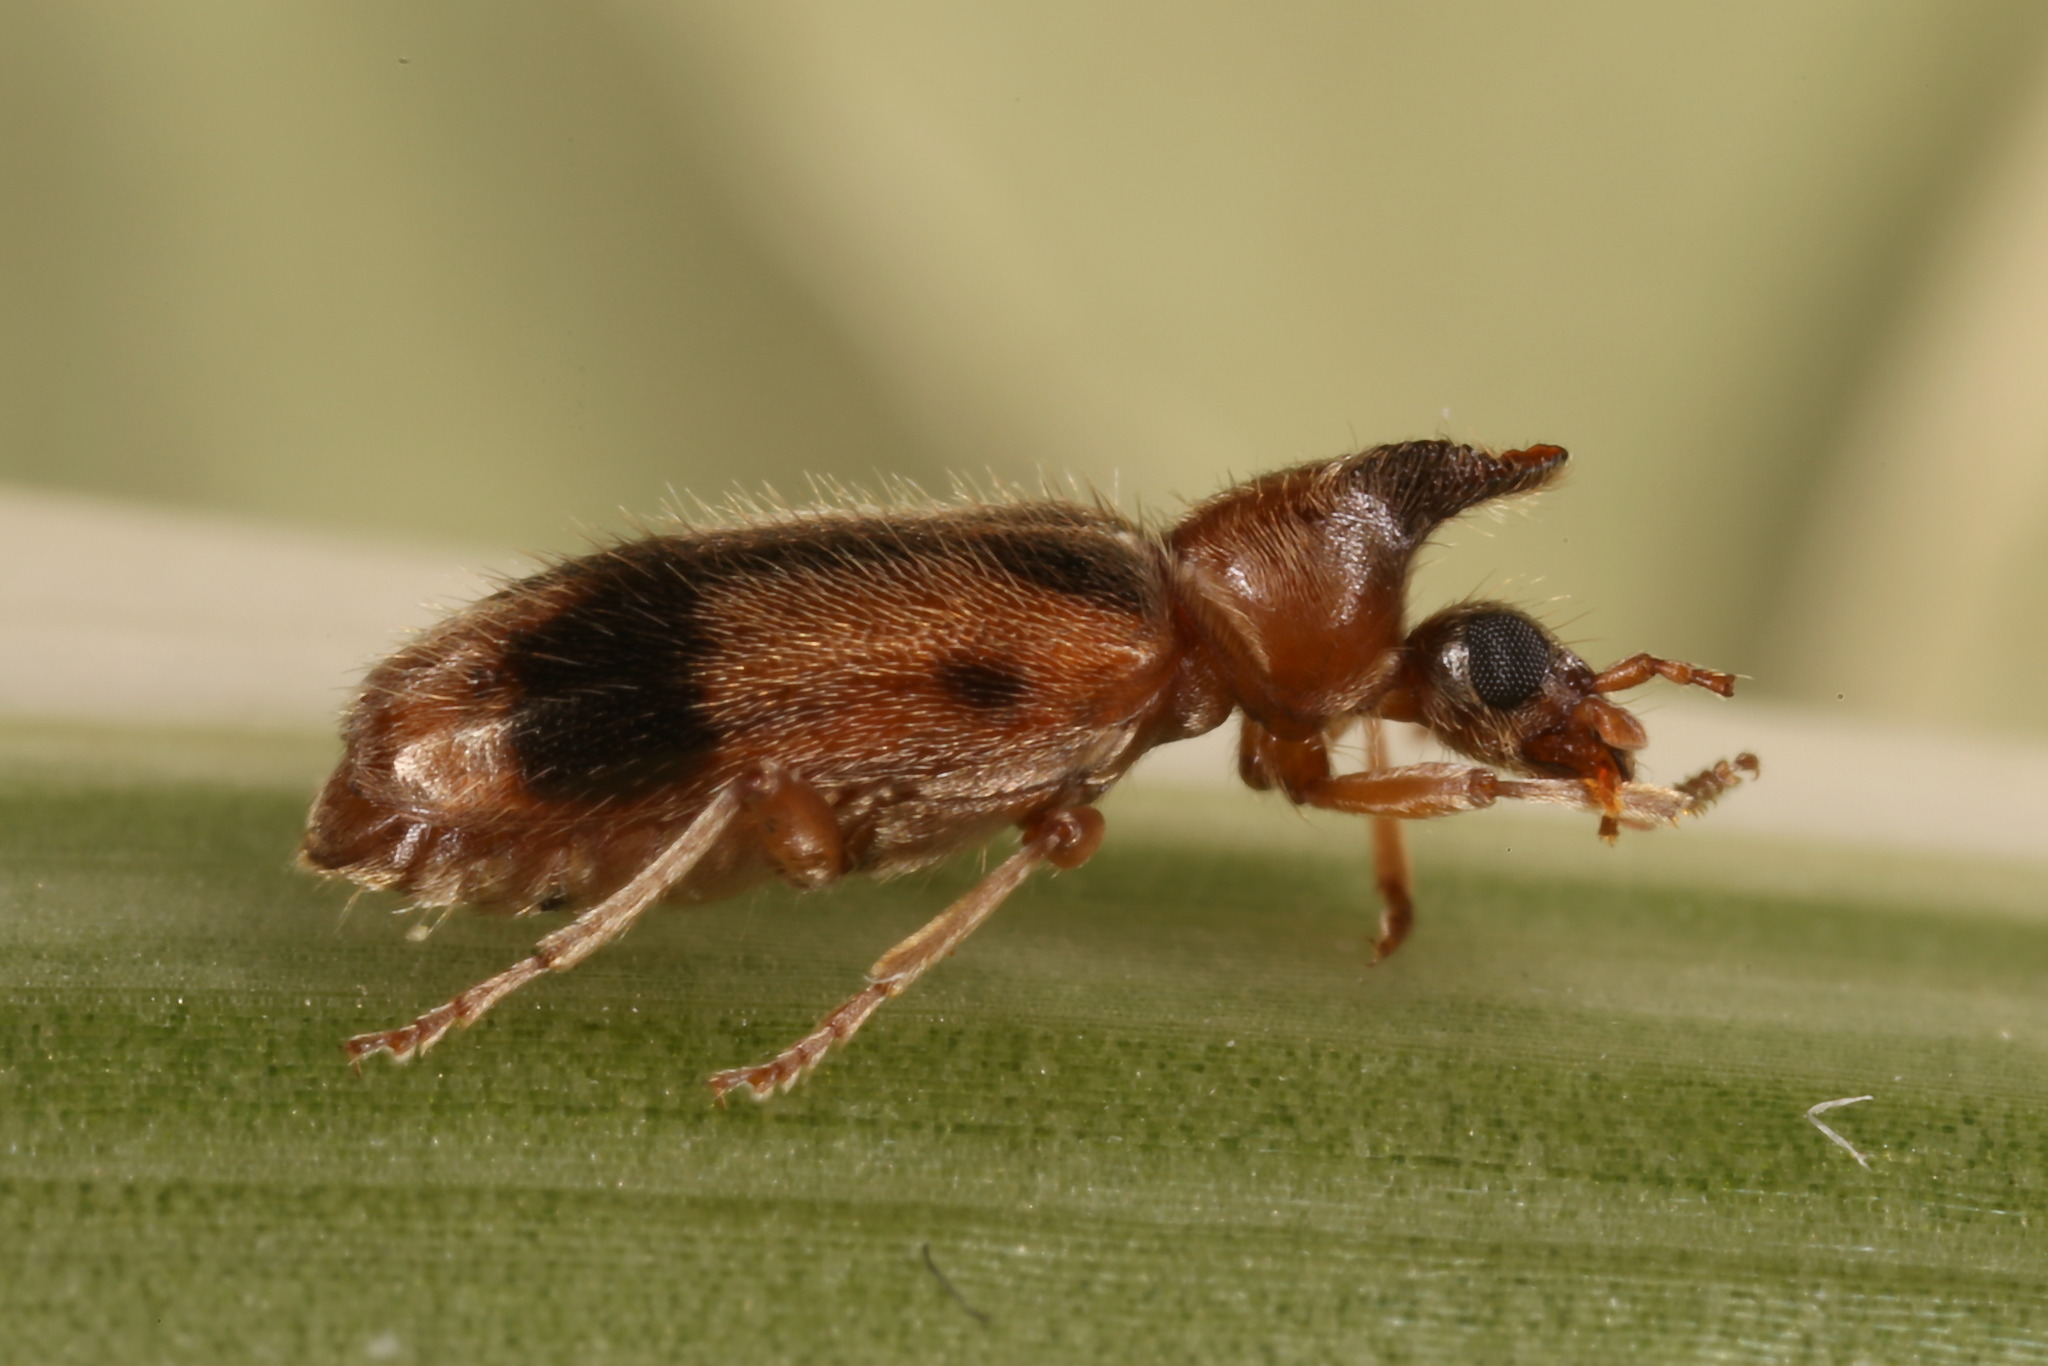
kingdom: Animalia
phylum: Arthropoda
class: Insecta
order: Coleoptera
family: Anthicidae
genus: Notoxus
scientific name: Notoxus monoceros
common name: Monoceros beetle
